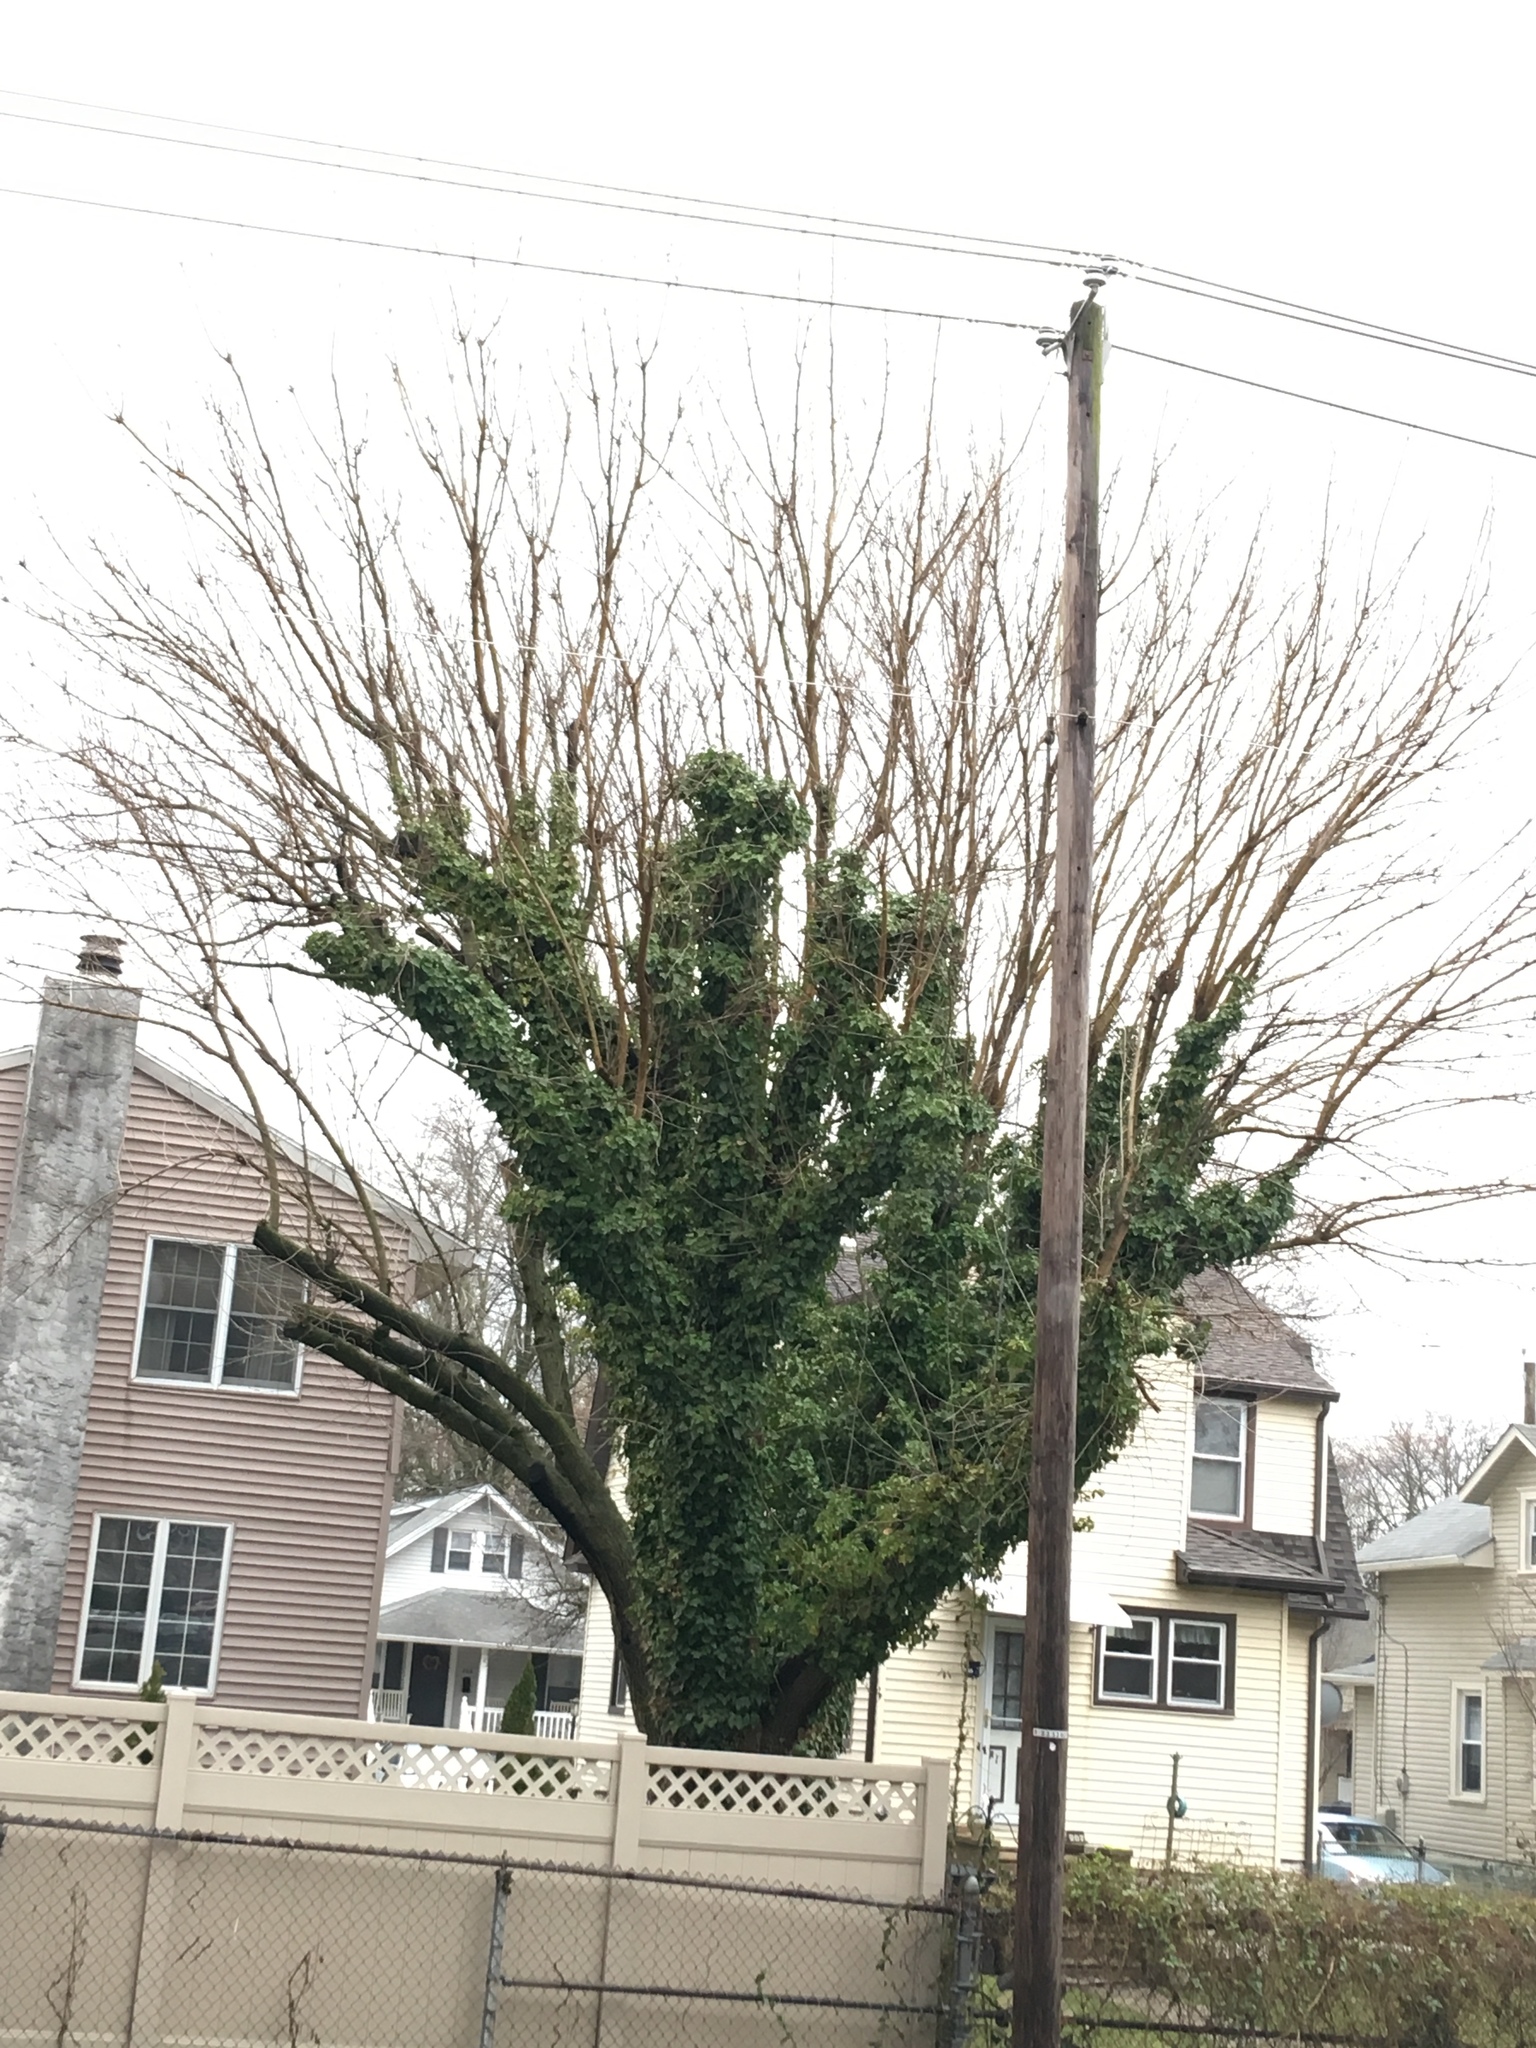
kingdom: Plantae
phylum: Tracheophyta
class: Magnoliopsida
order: Apiales
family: Araliaceae
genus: Hedera
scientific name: Hedera helix
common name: Ivy
